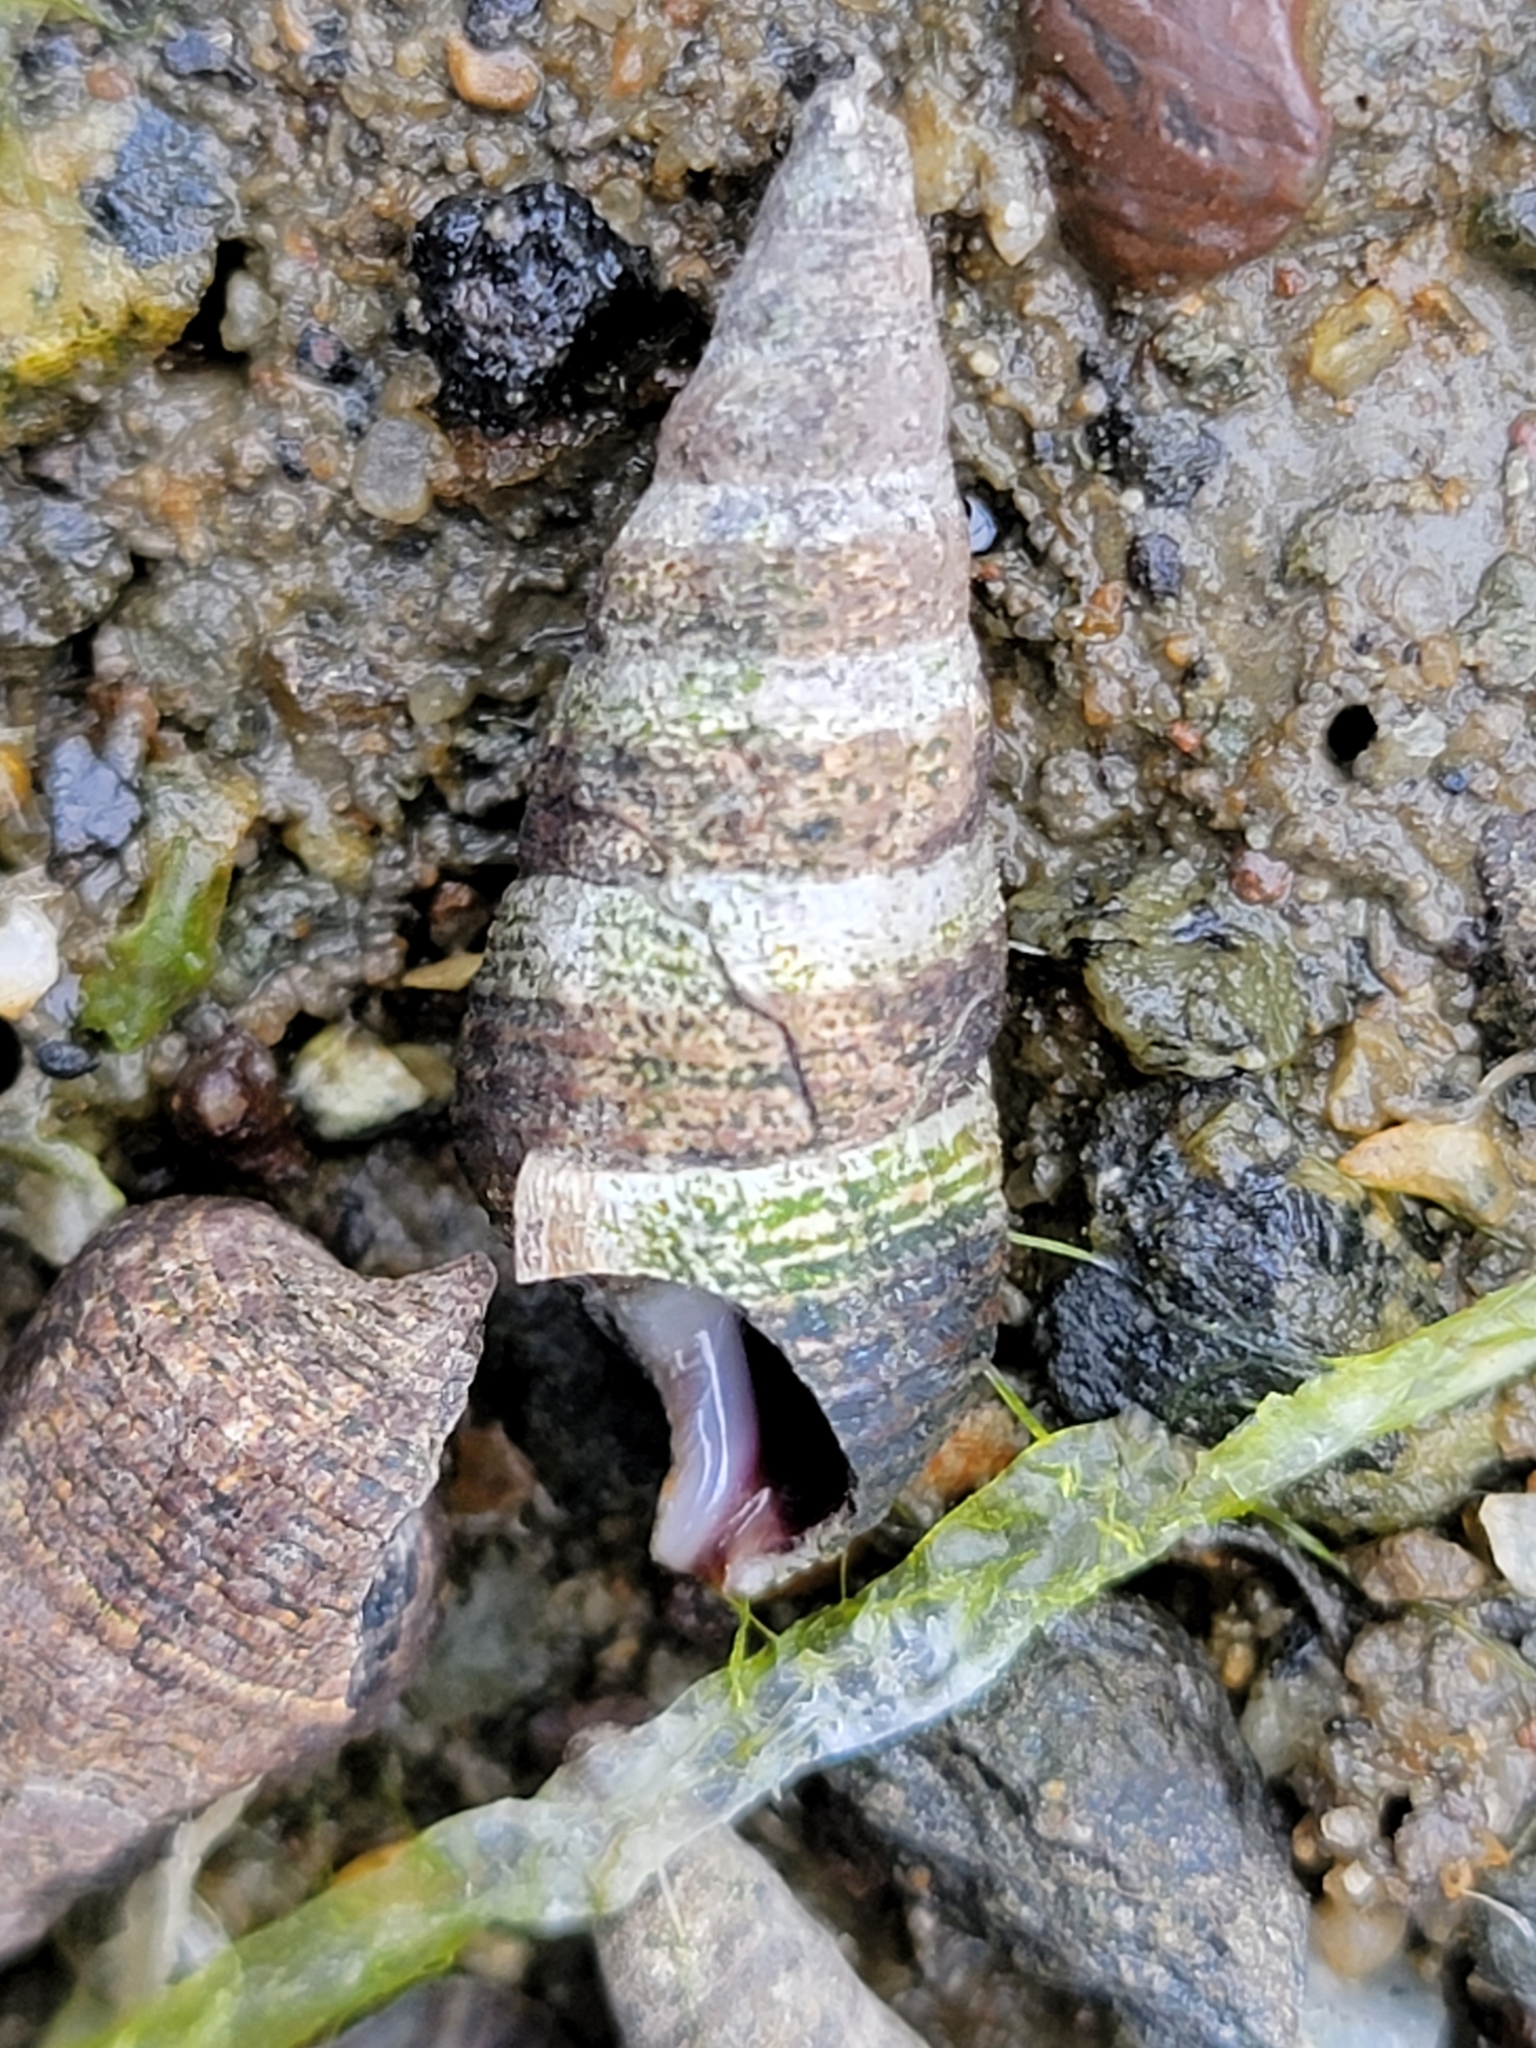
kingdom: Animalia
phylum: Mollusca
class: Gastropoda
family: Batillariidae
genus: Batillaria
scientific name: Batillaria attramentaria
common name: Japanese false cerith
